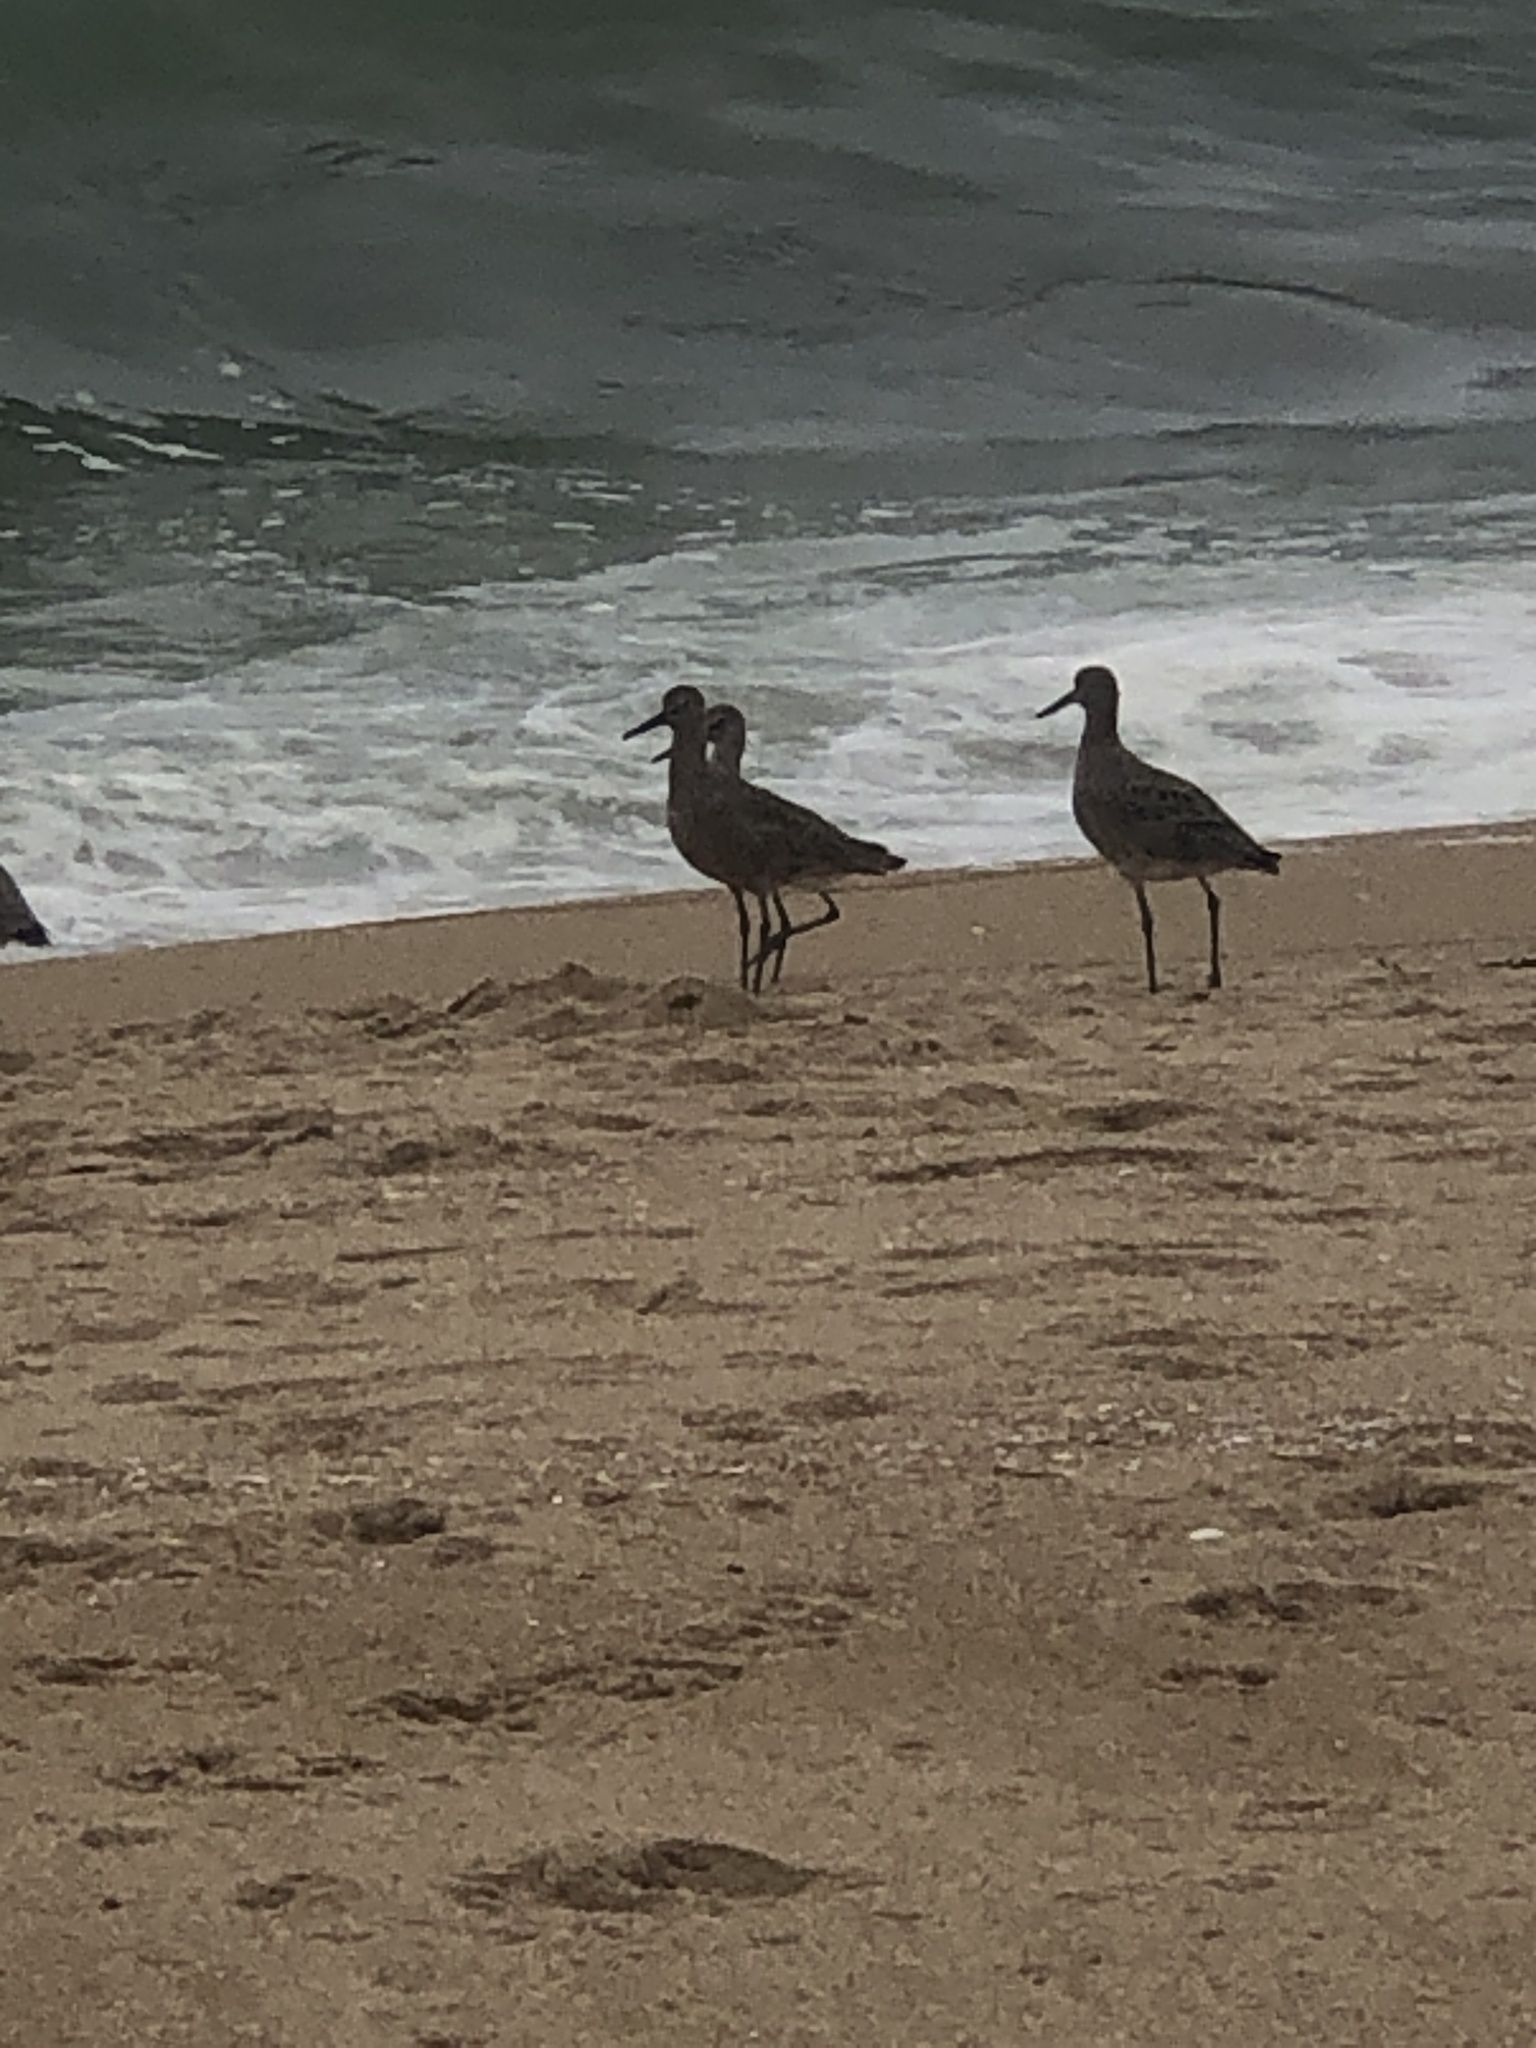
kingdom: Animalia
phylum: Chordata
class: Aves
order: Charadriiformes
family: Scolopacidae
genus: Tringa
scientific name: Tringa semipalmata
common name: Willet
